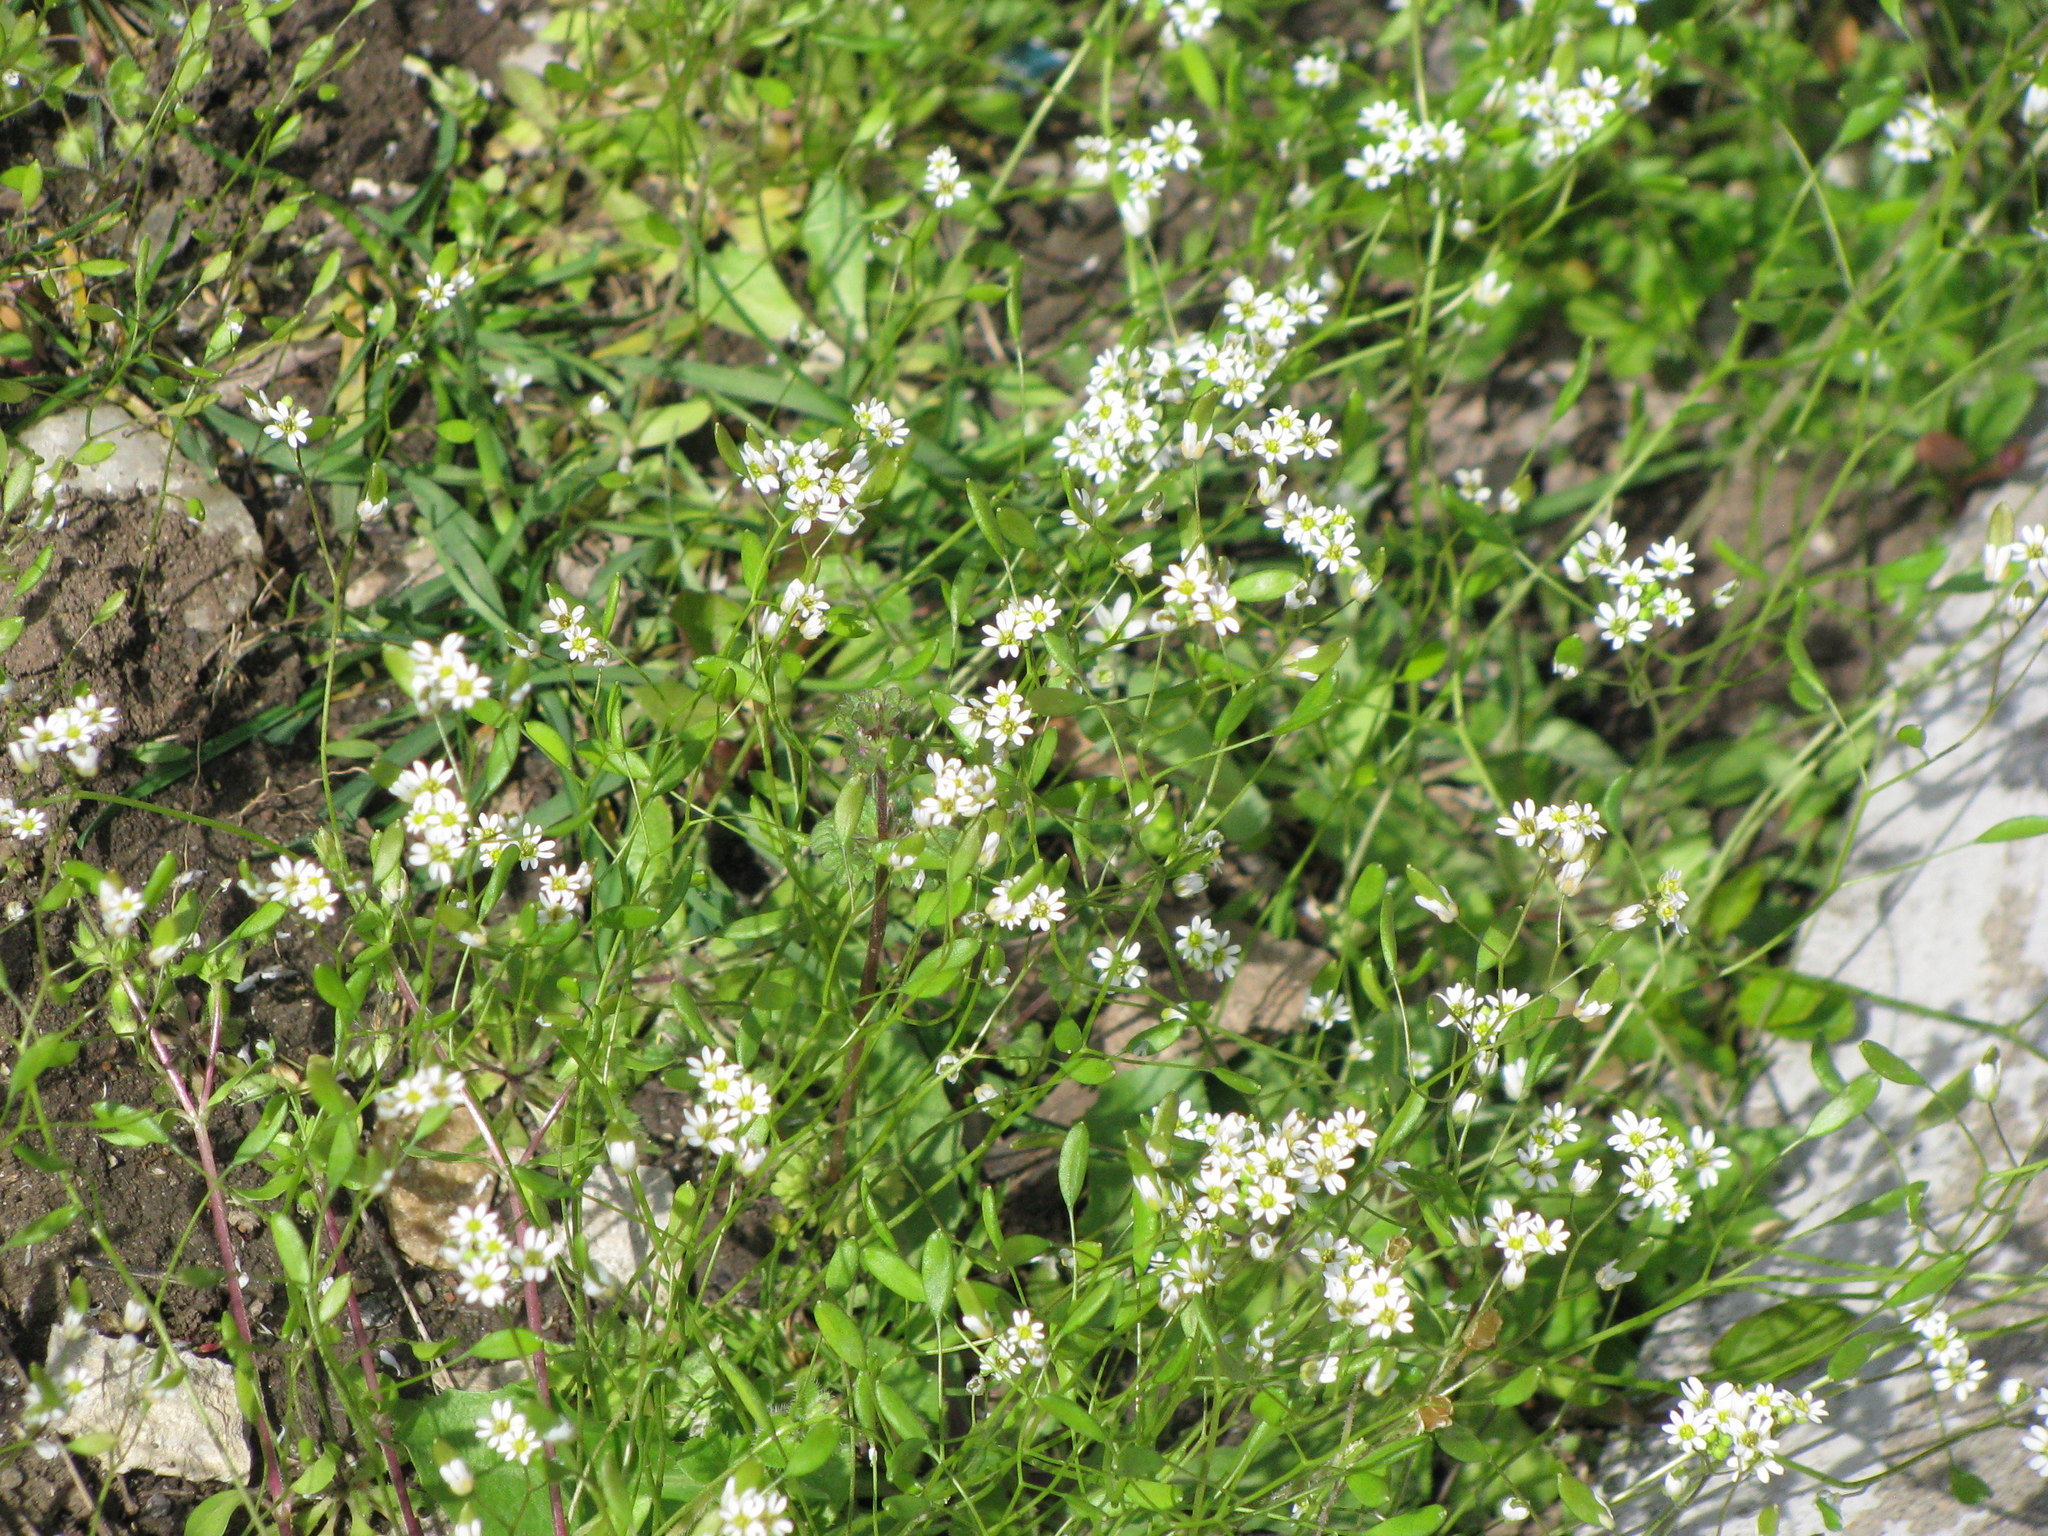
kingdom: Plantae
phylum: Tracheophyta
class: Magnoliopsida
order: Brassicales
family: Brassicaceae
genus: Draba
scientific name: Draba verna
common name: Spring draba
